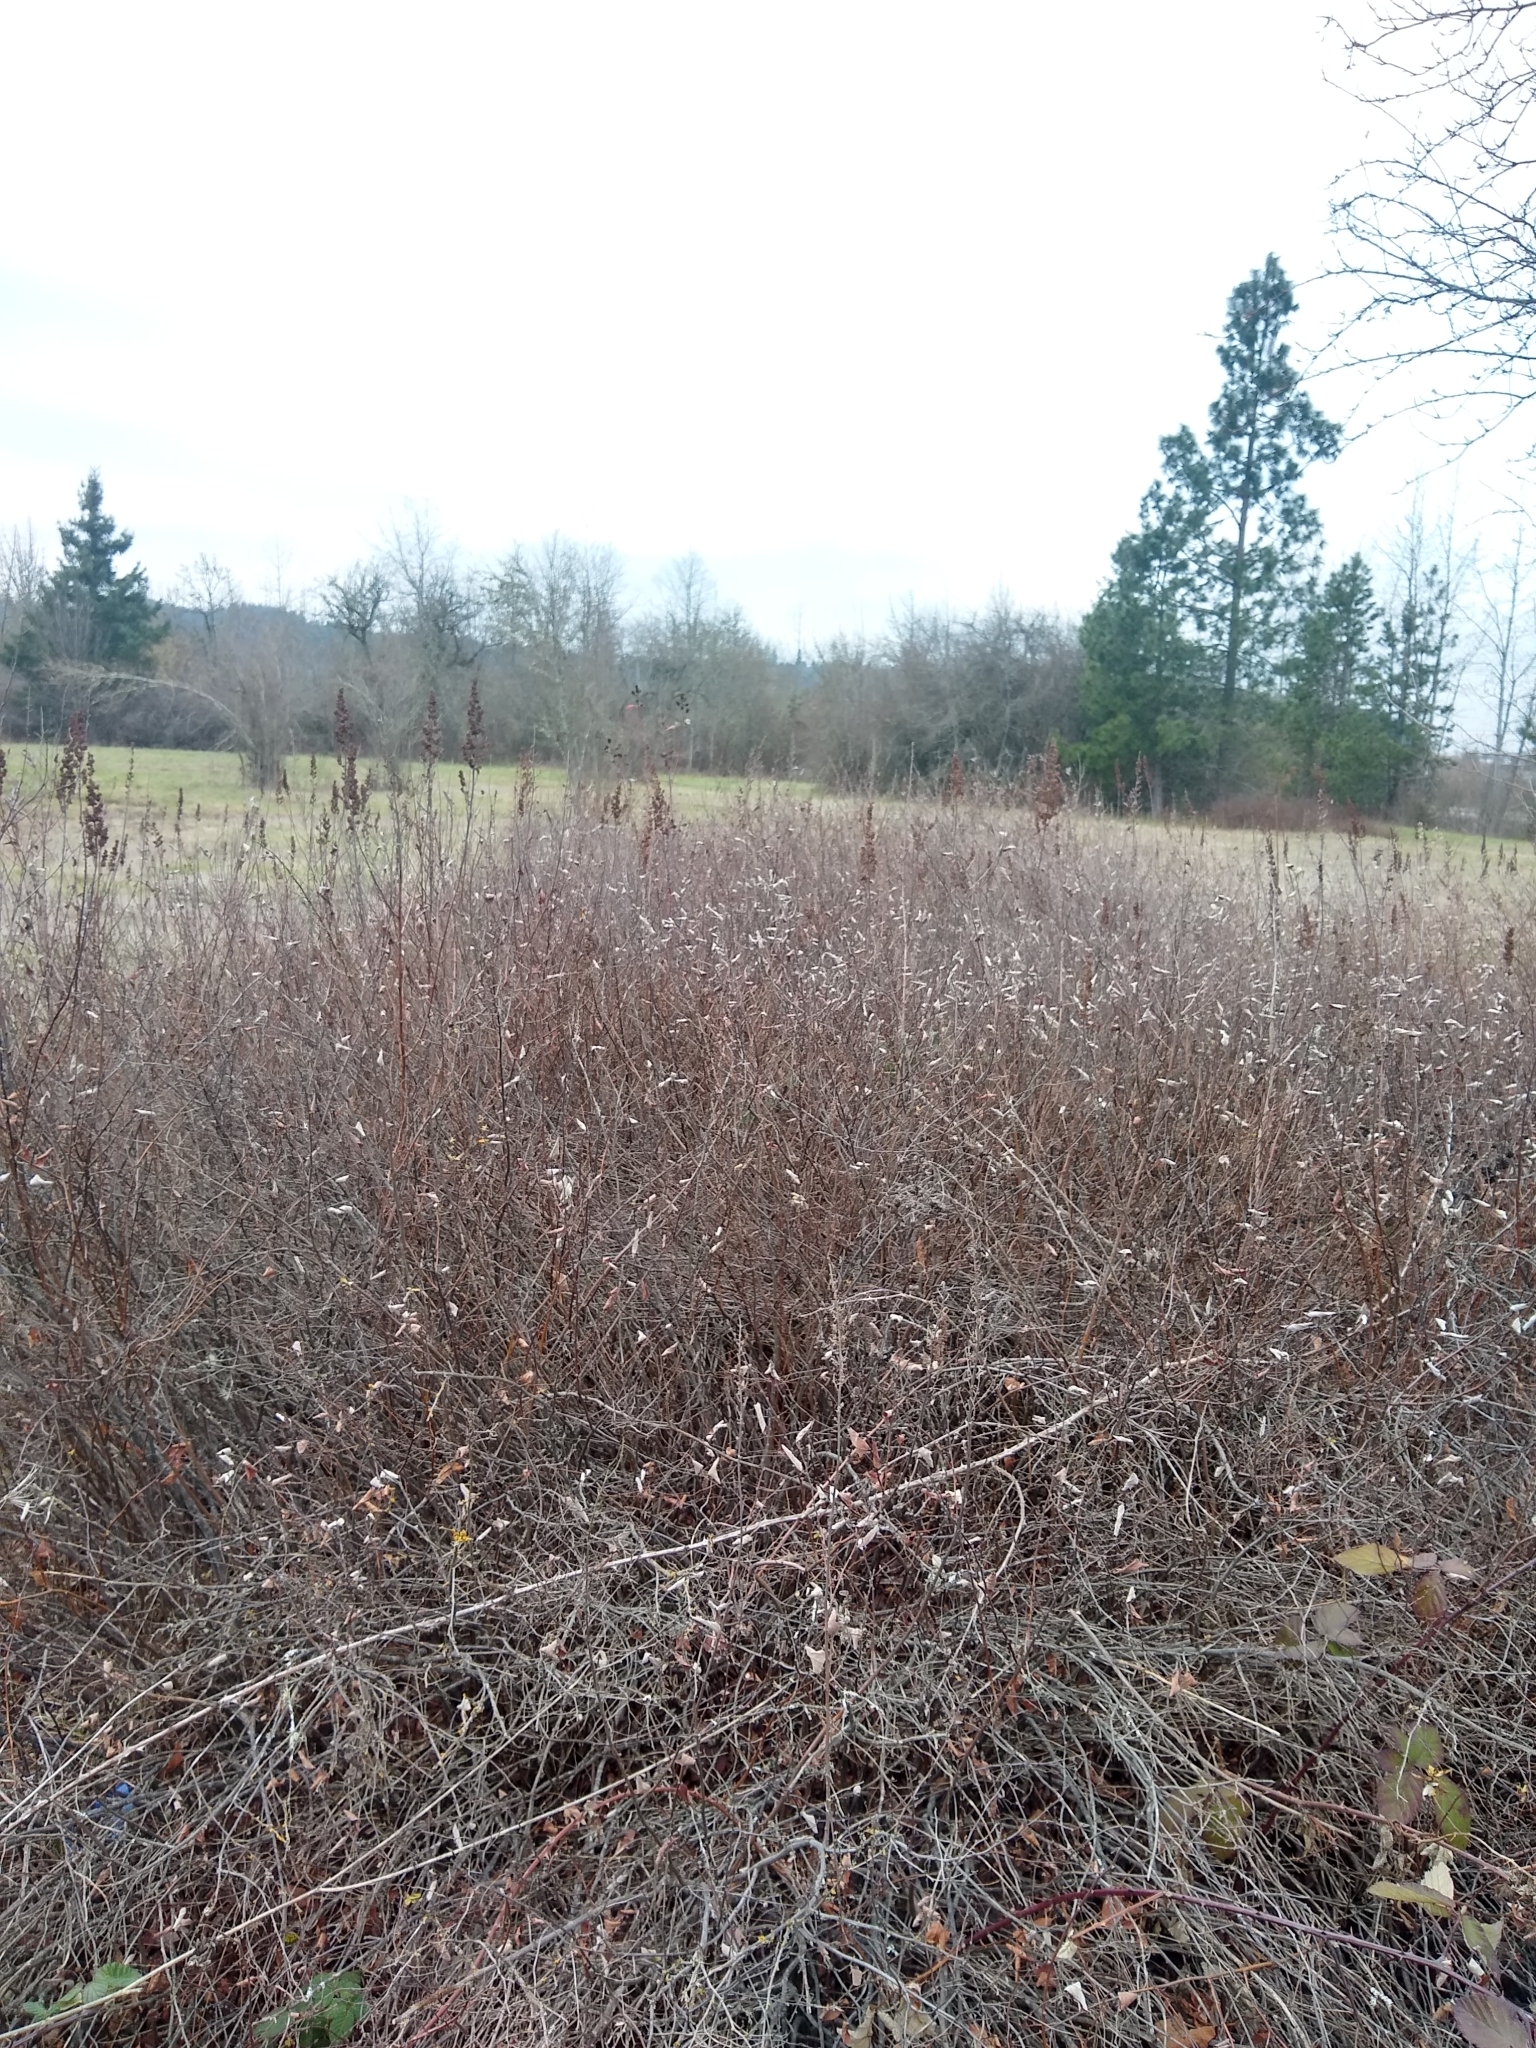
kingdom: Plantae
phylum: Tracheophyta
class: Magnoliopsida
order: Rosales
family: Rosaceae
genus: Spiraea
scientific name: Spiraea douglasii
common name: Steeplebush
